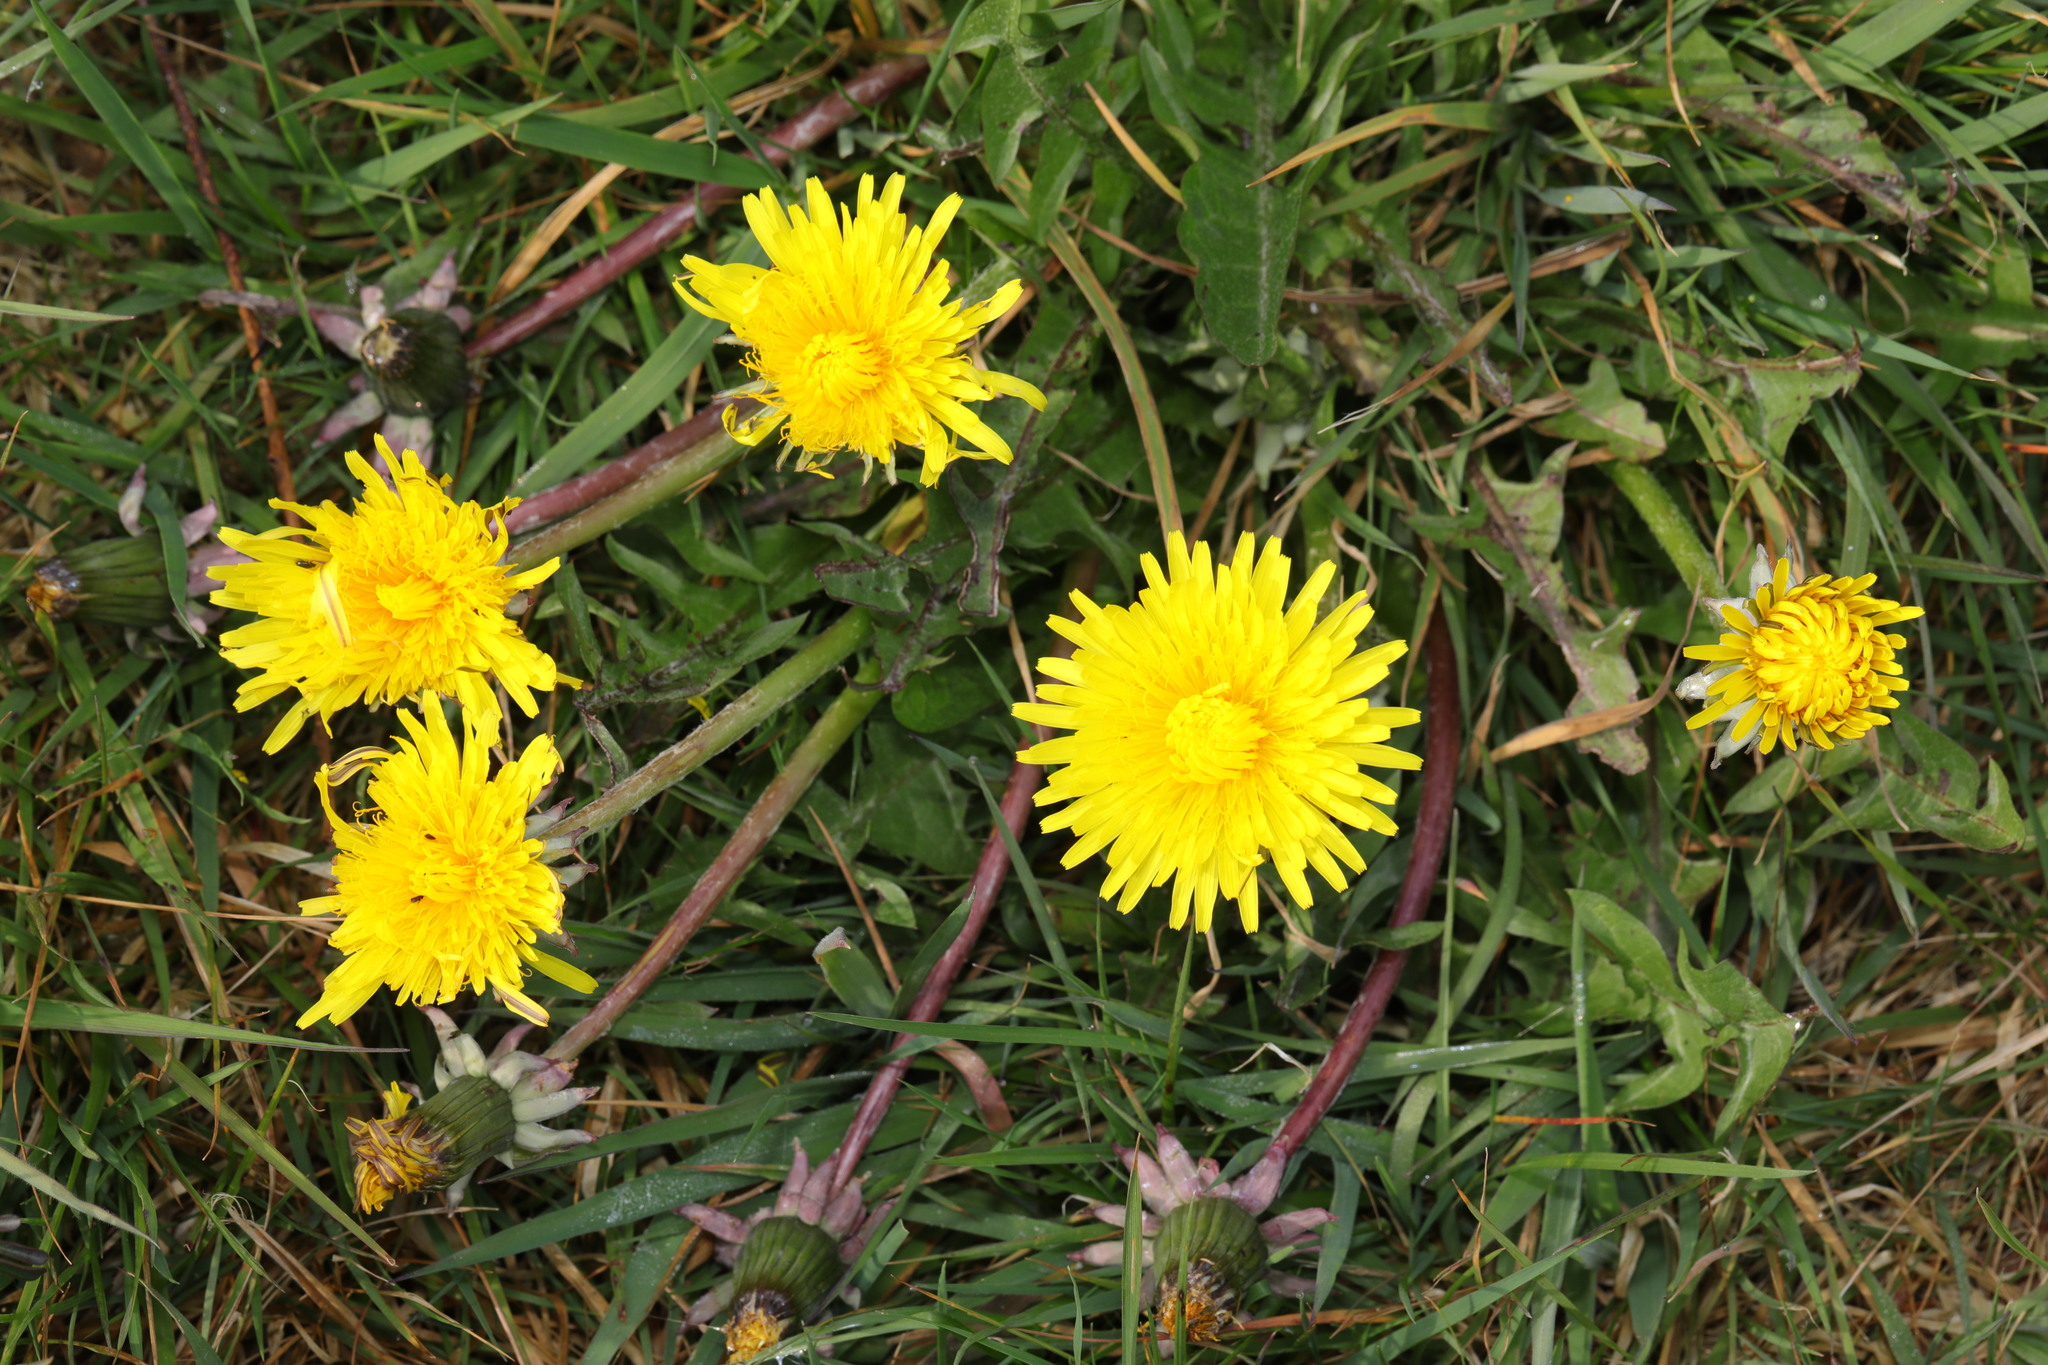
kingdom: Plantae
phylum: Tracheophyta
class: Magnoliopsida
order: Asterales
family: Asteraceae
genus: Taraxacum
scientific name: Taraxacum officinale
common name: Common dandelion
